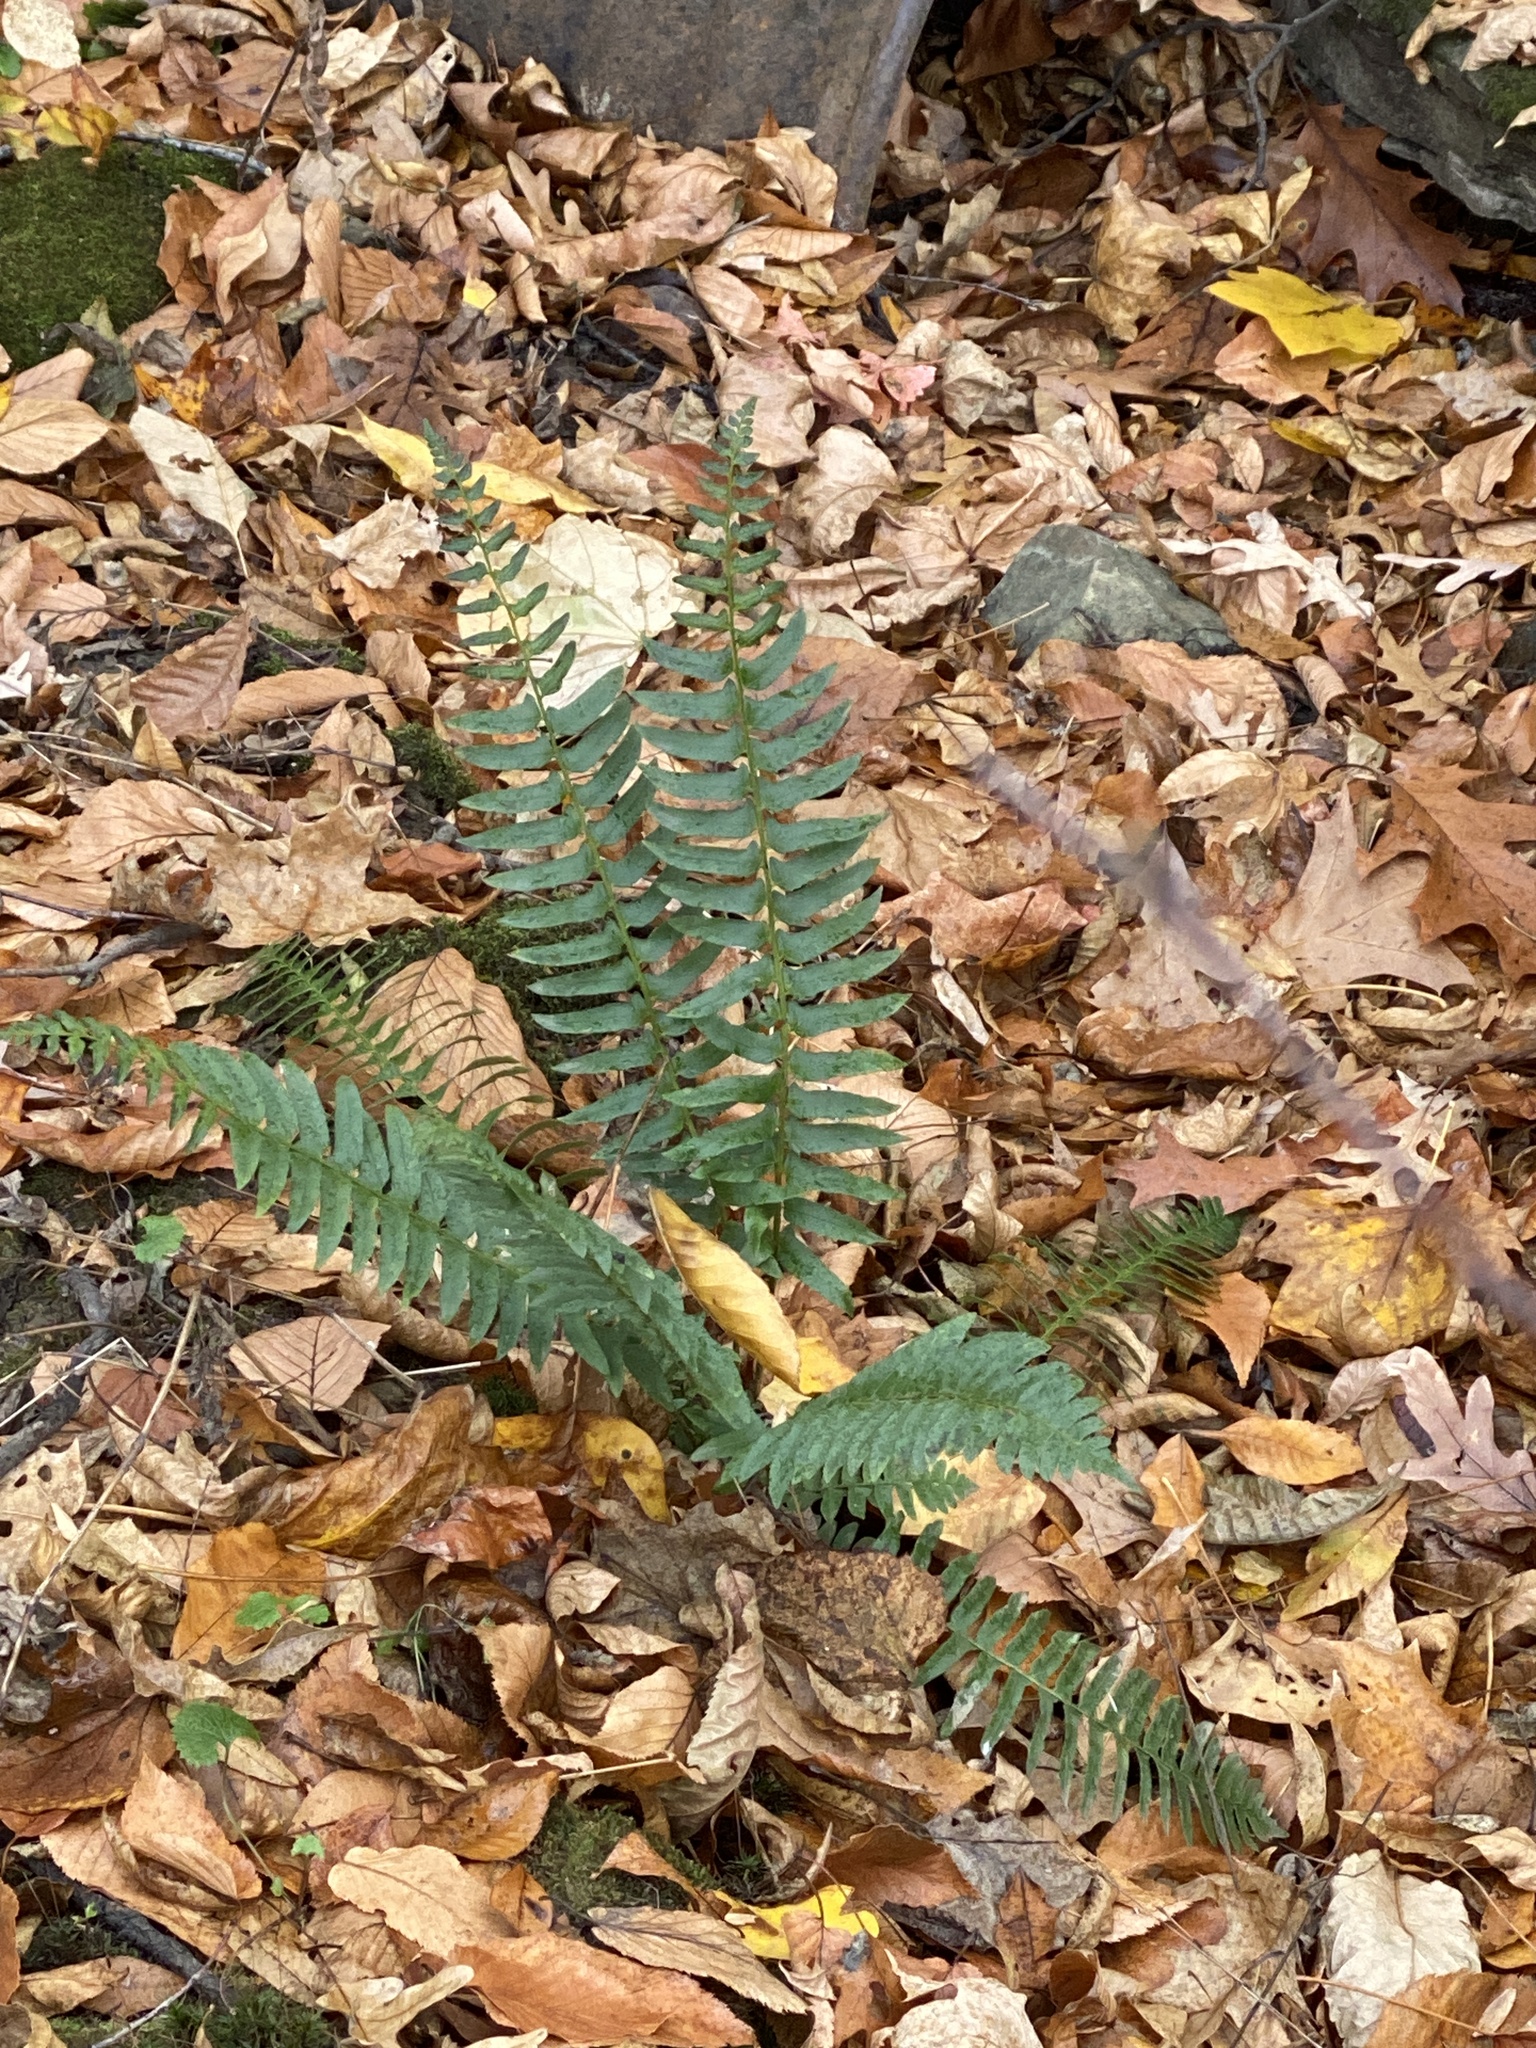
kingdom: Plantae
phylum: Tracheophyta
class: Polypodiopsida
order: Polypodiales
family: Dryopteridaceae
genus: Polystichum
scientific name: Polystichum acrostichoides
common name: Christmas fern
